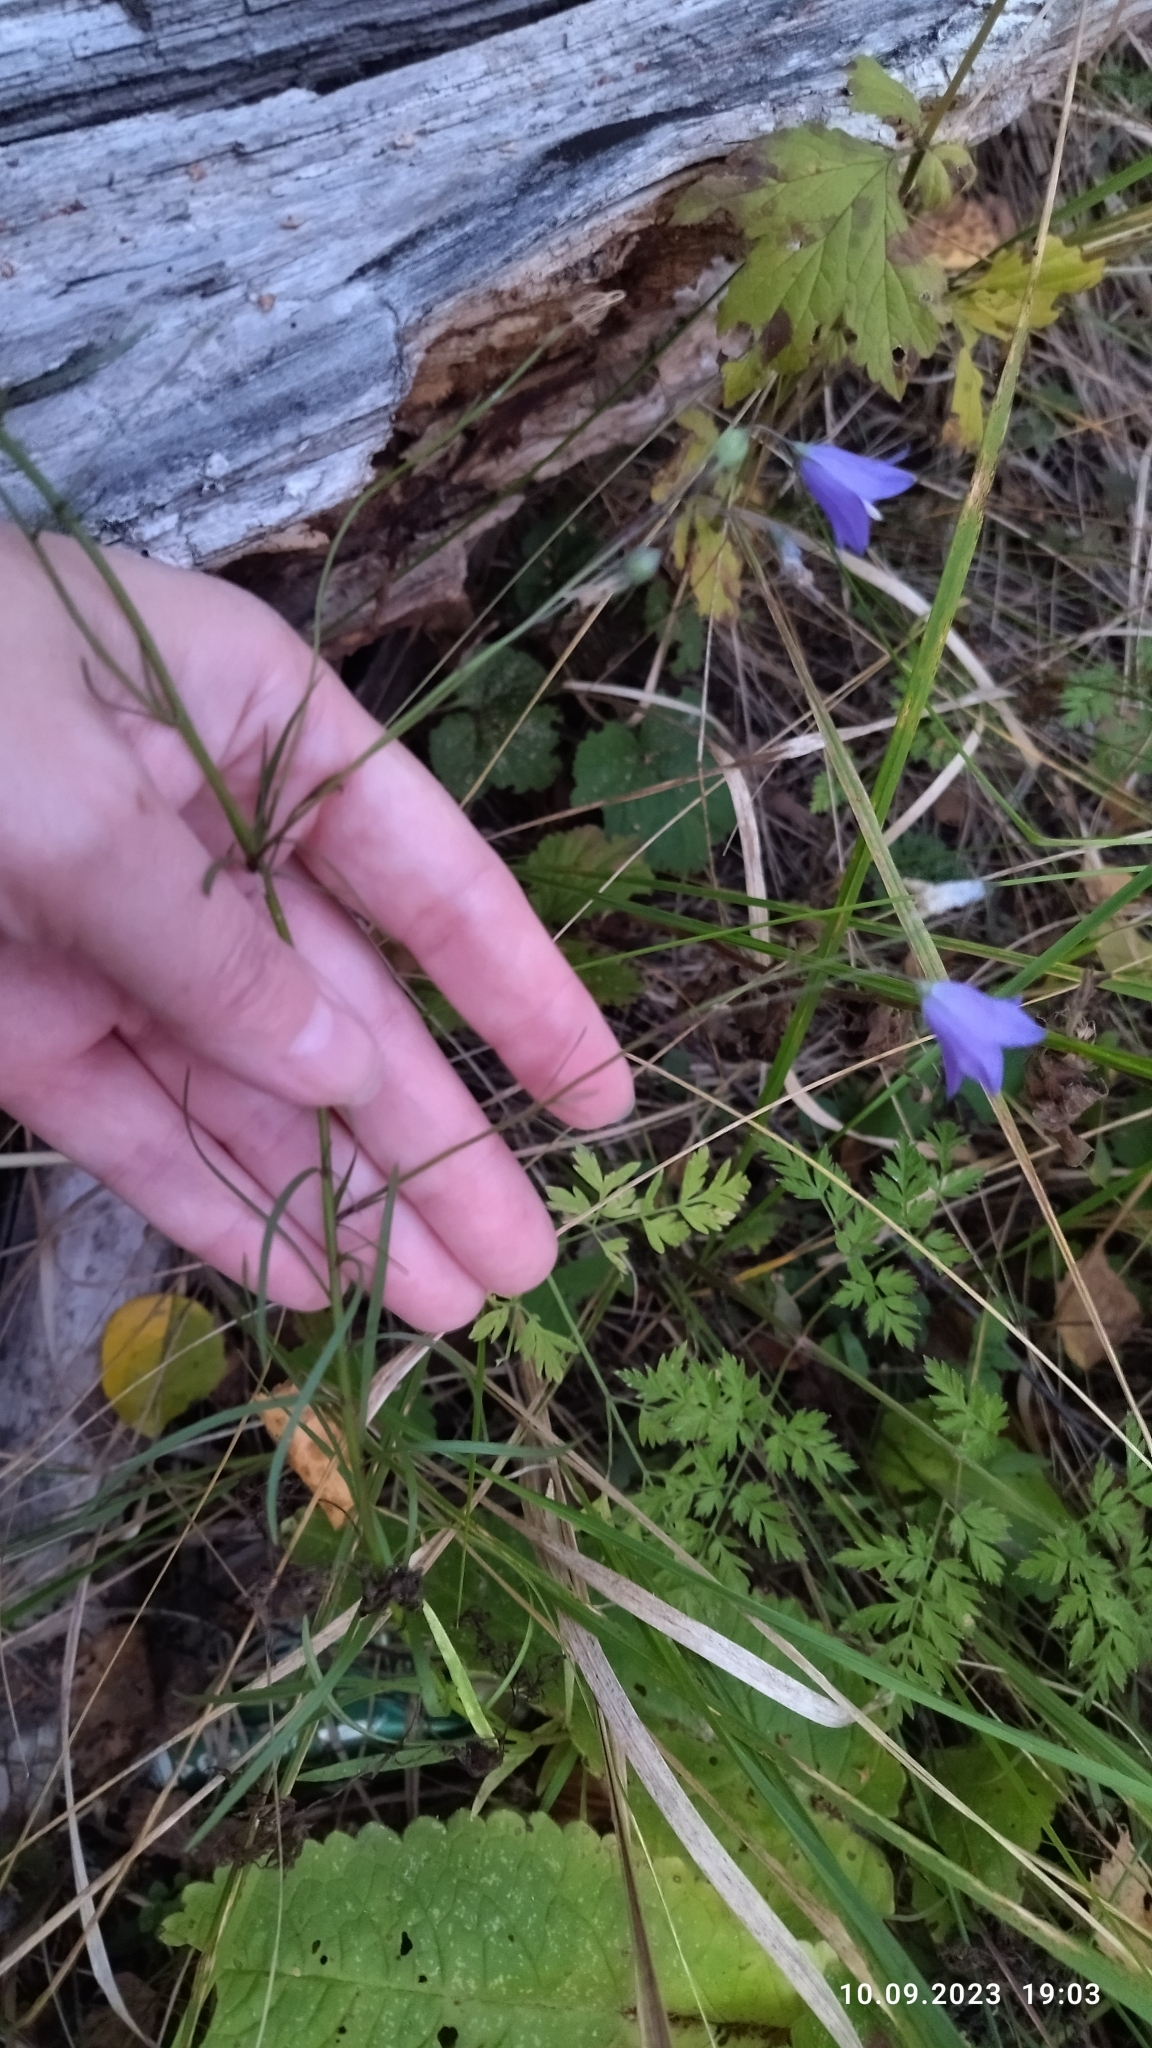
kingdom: Plantae
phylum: Tracheophyta
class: Magnoliopsida
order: Asterales
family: Campanulaceae
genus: Campanula
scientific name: Campanula rotundifolia
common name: Harebell
